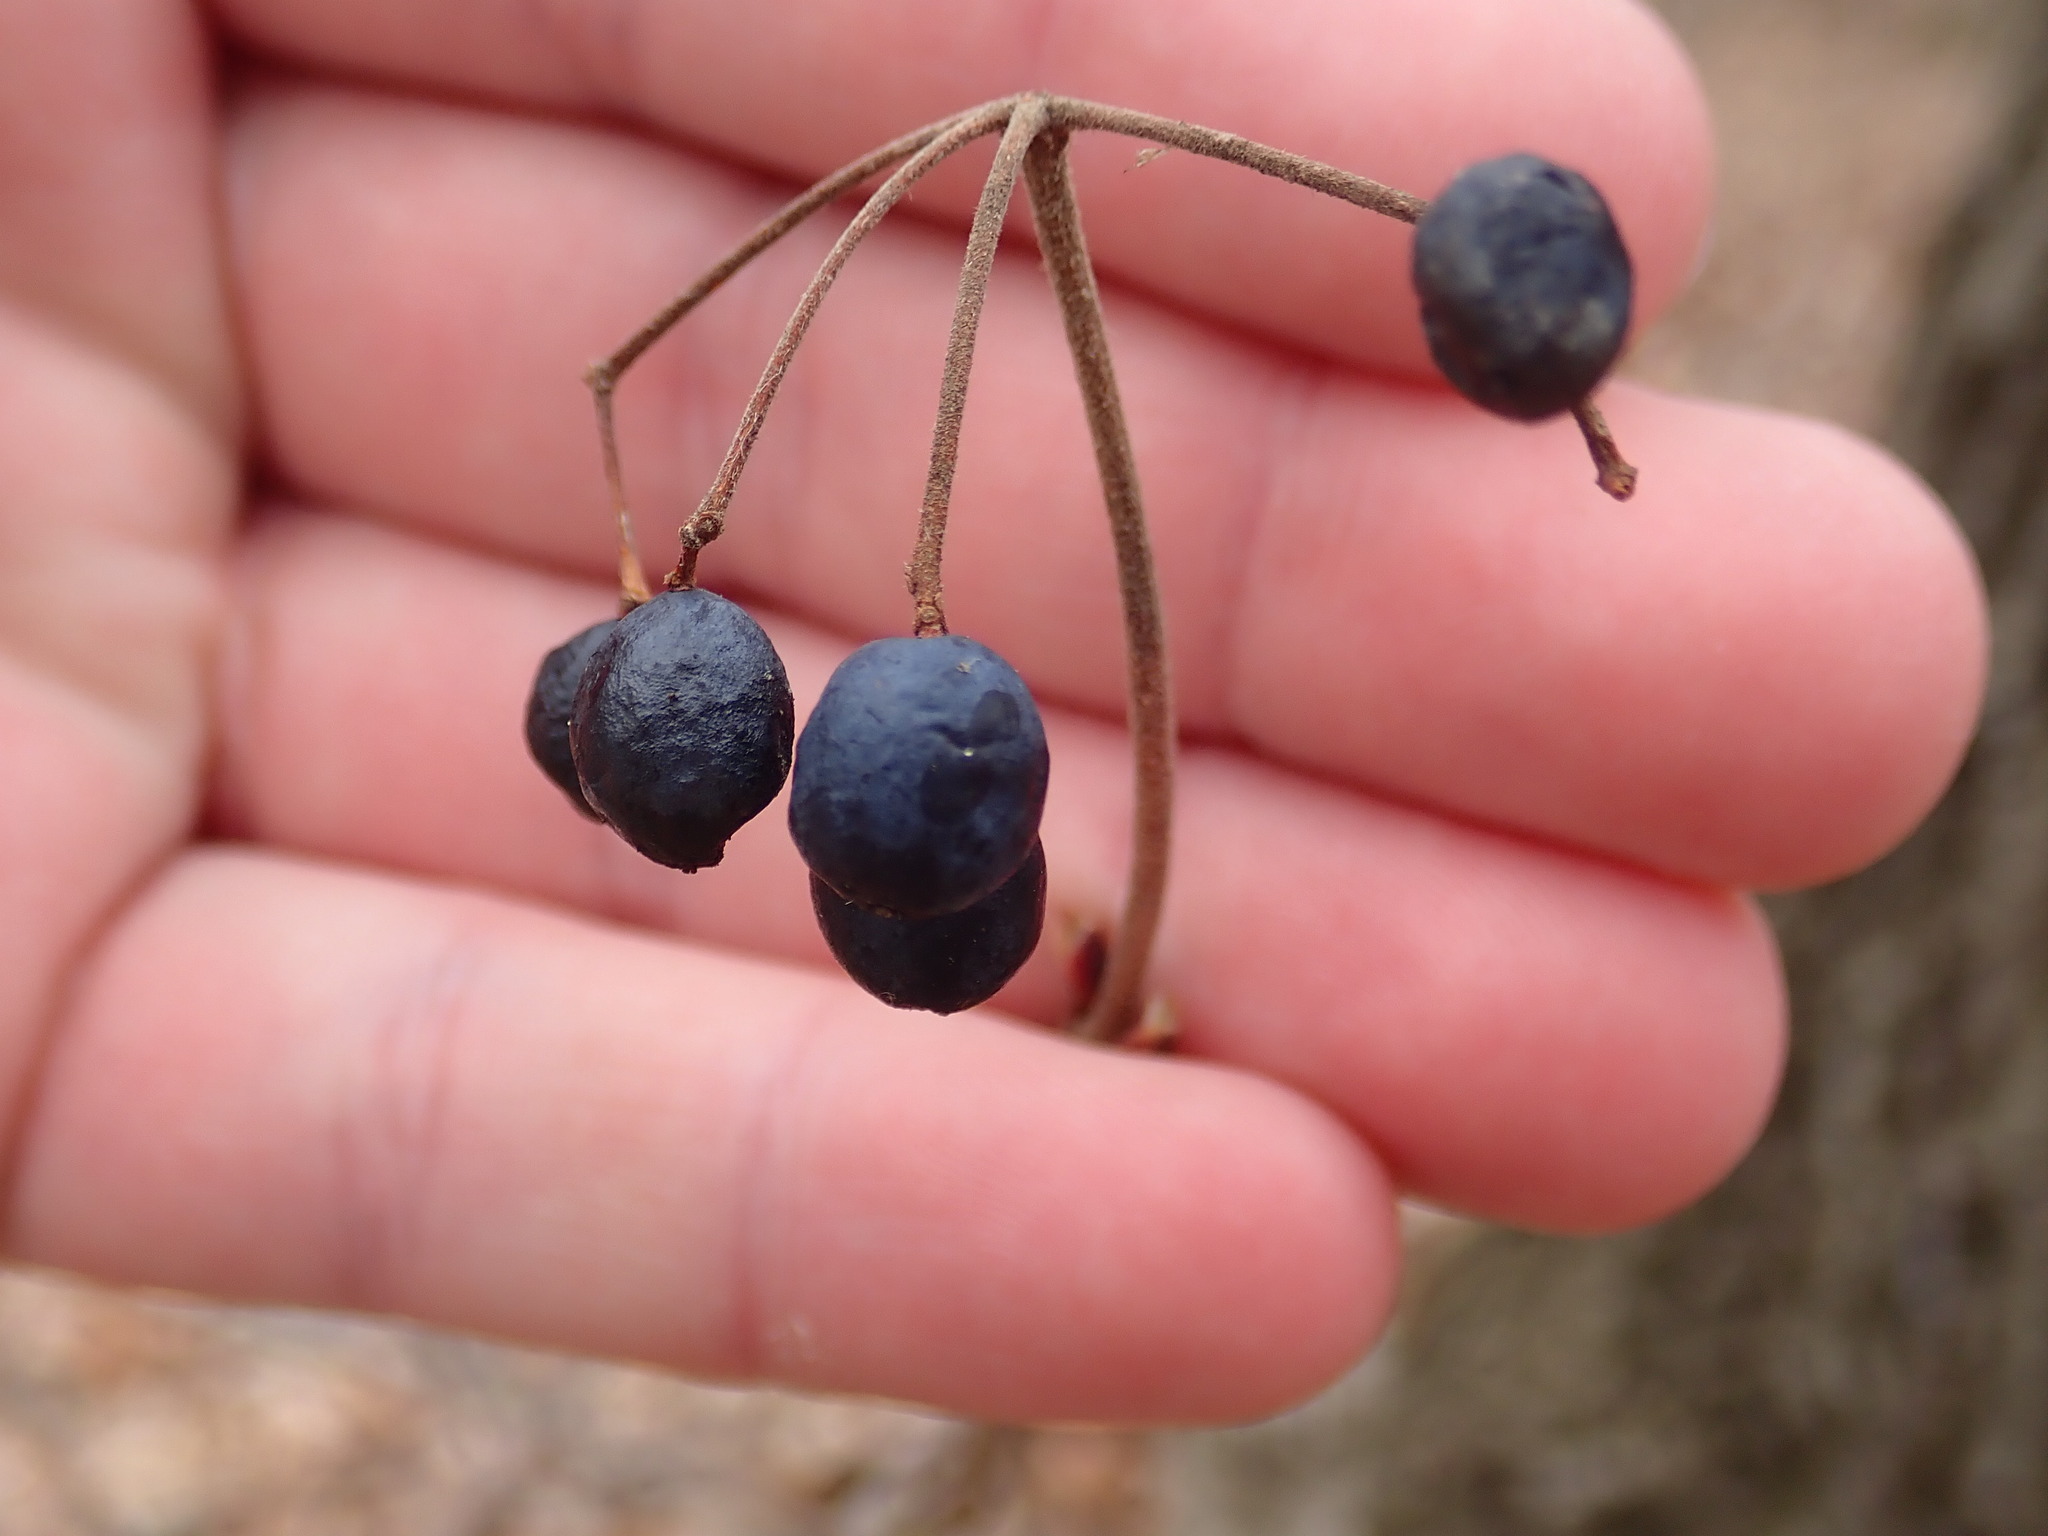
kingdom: Plantae
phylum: Tracheophyta
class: Magnoliopsida
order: Dipsacales
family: Viburnaceae
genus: Viburnum
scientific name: Viburnum acerifolium
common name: Dockmackie
